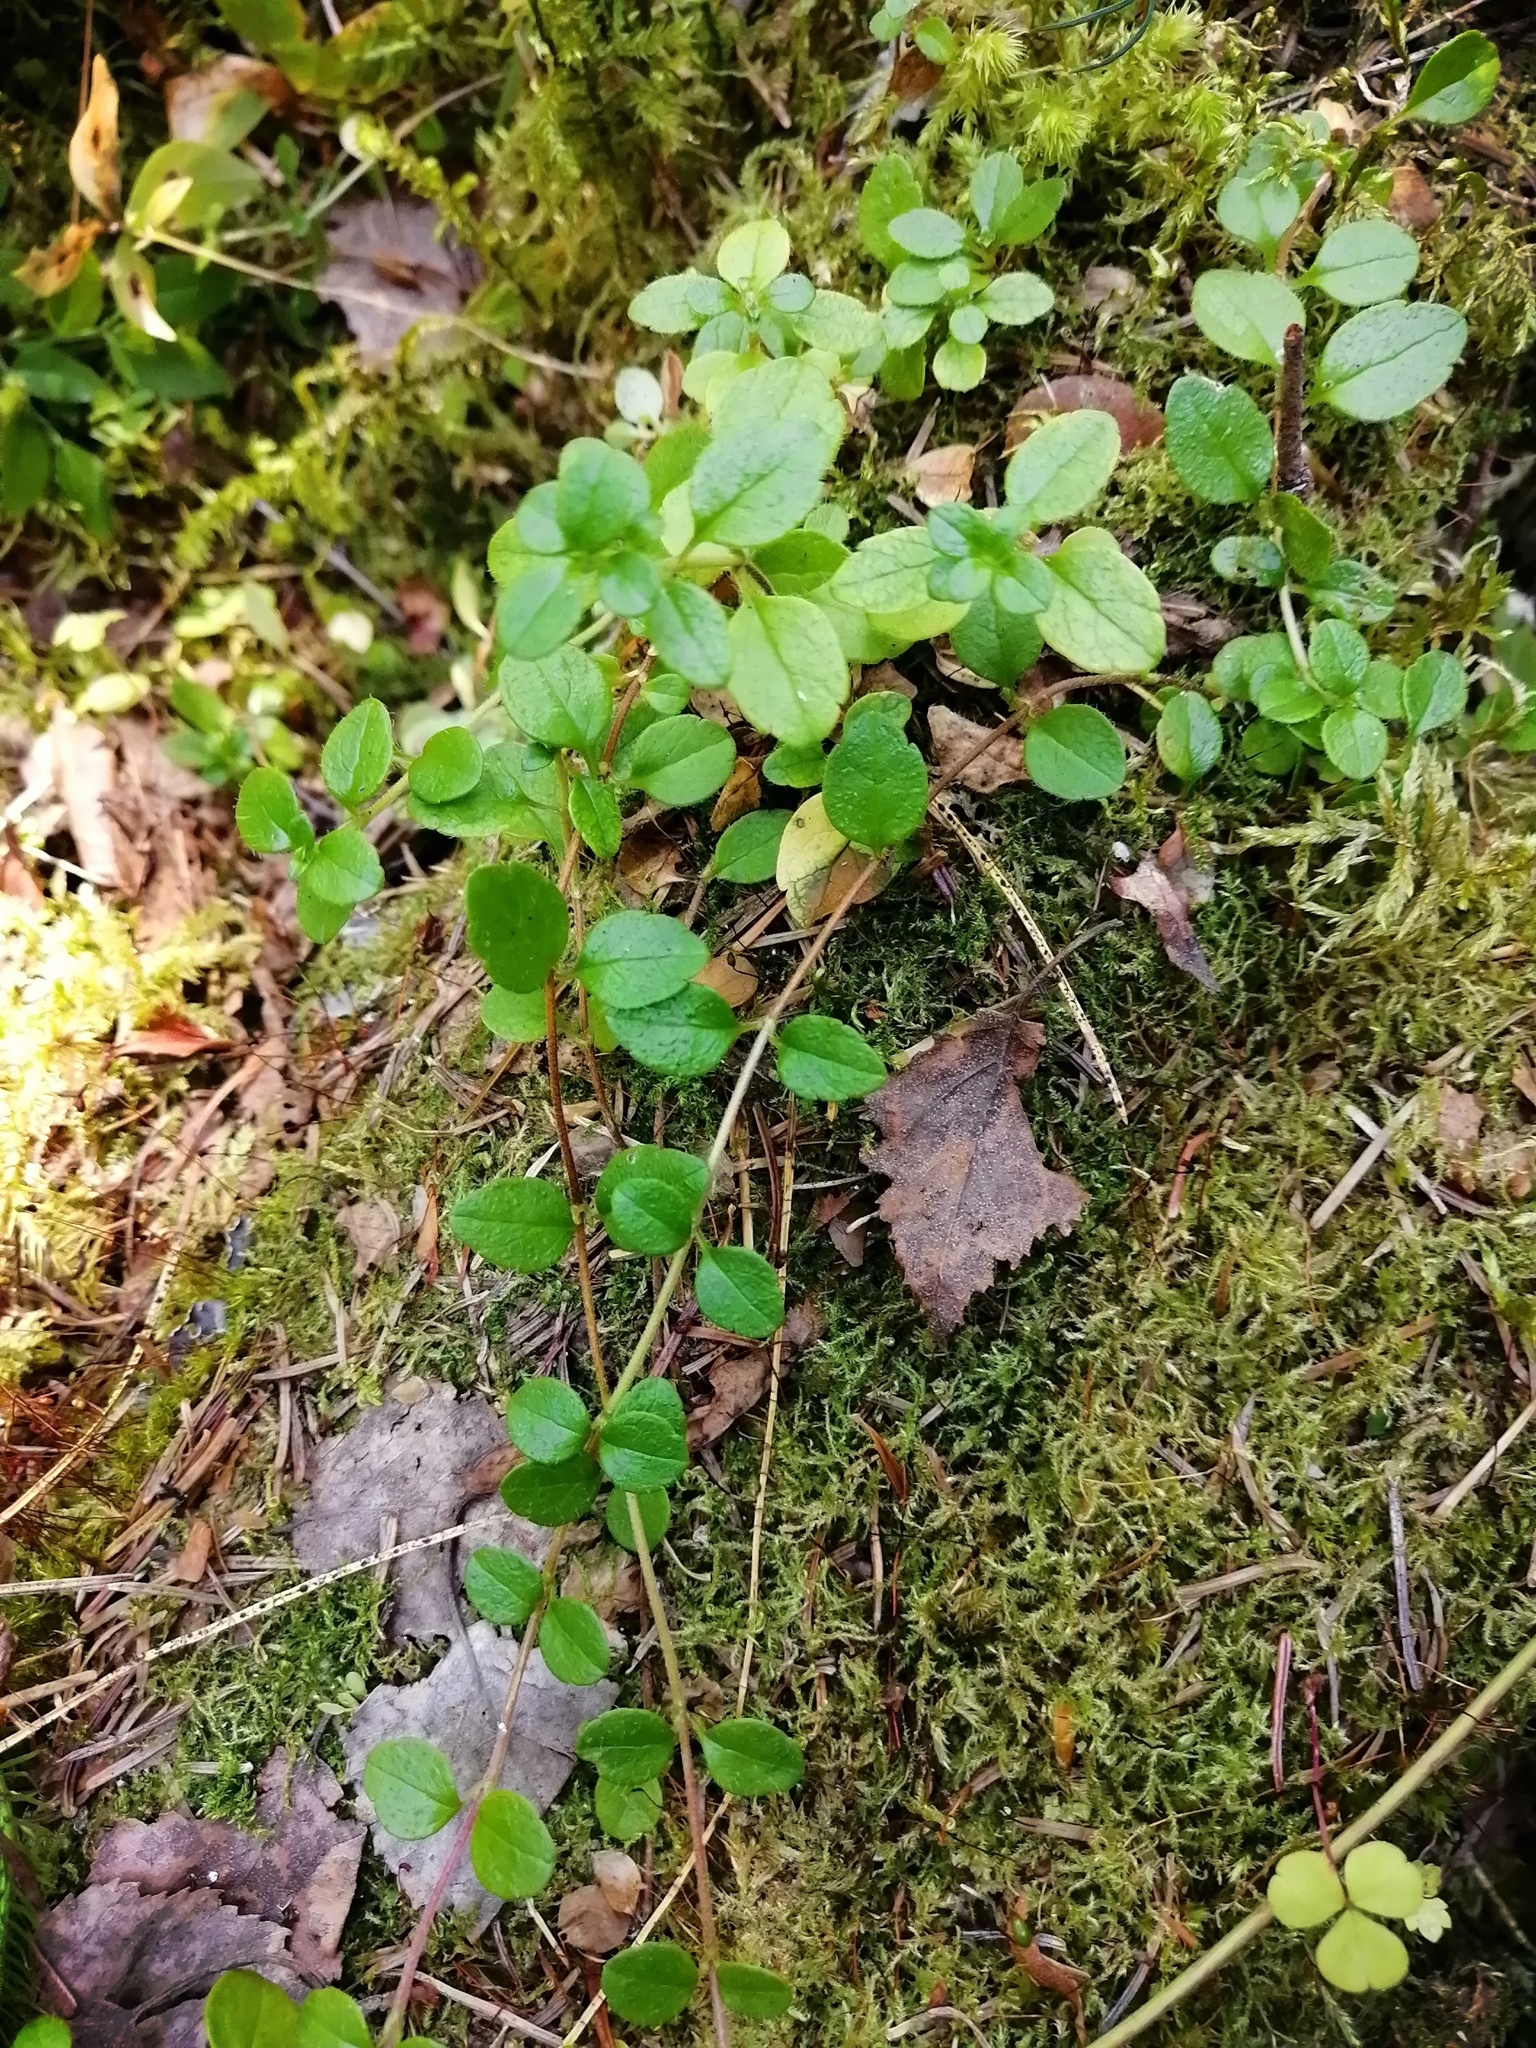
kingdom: Plantae
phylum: Tracheophyta
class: Magnoliopsida
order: Dipsacales
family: Caprifoliaceae
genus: Linnaea
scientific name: Linnaea borealis
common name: Twinflower
